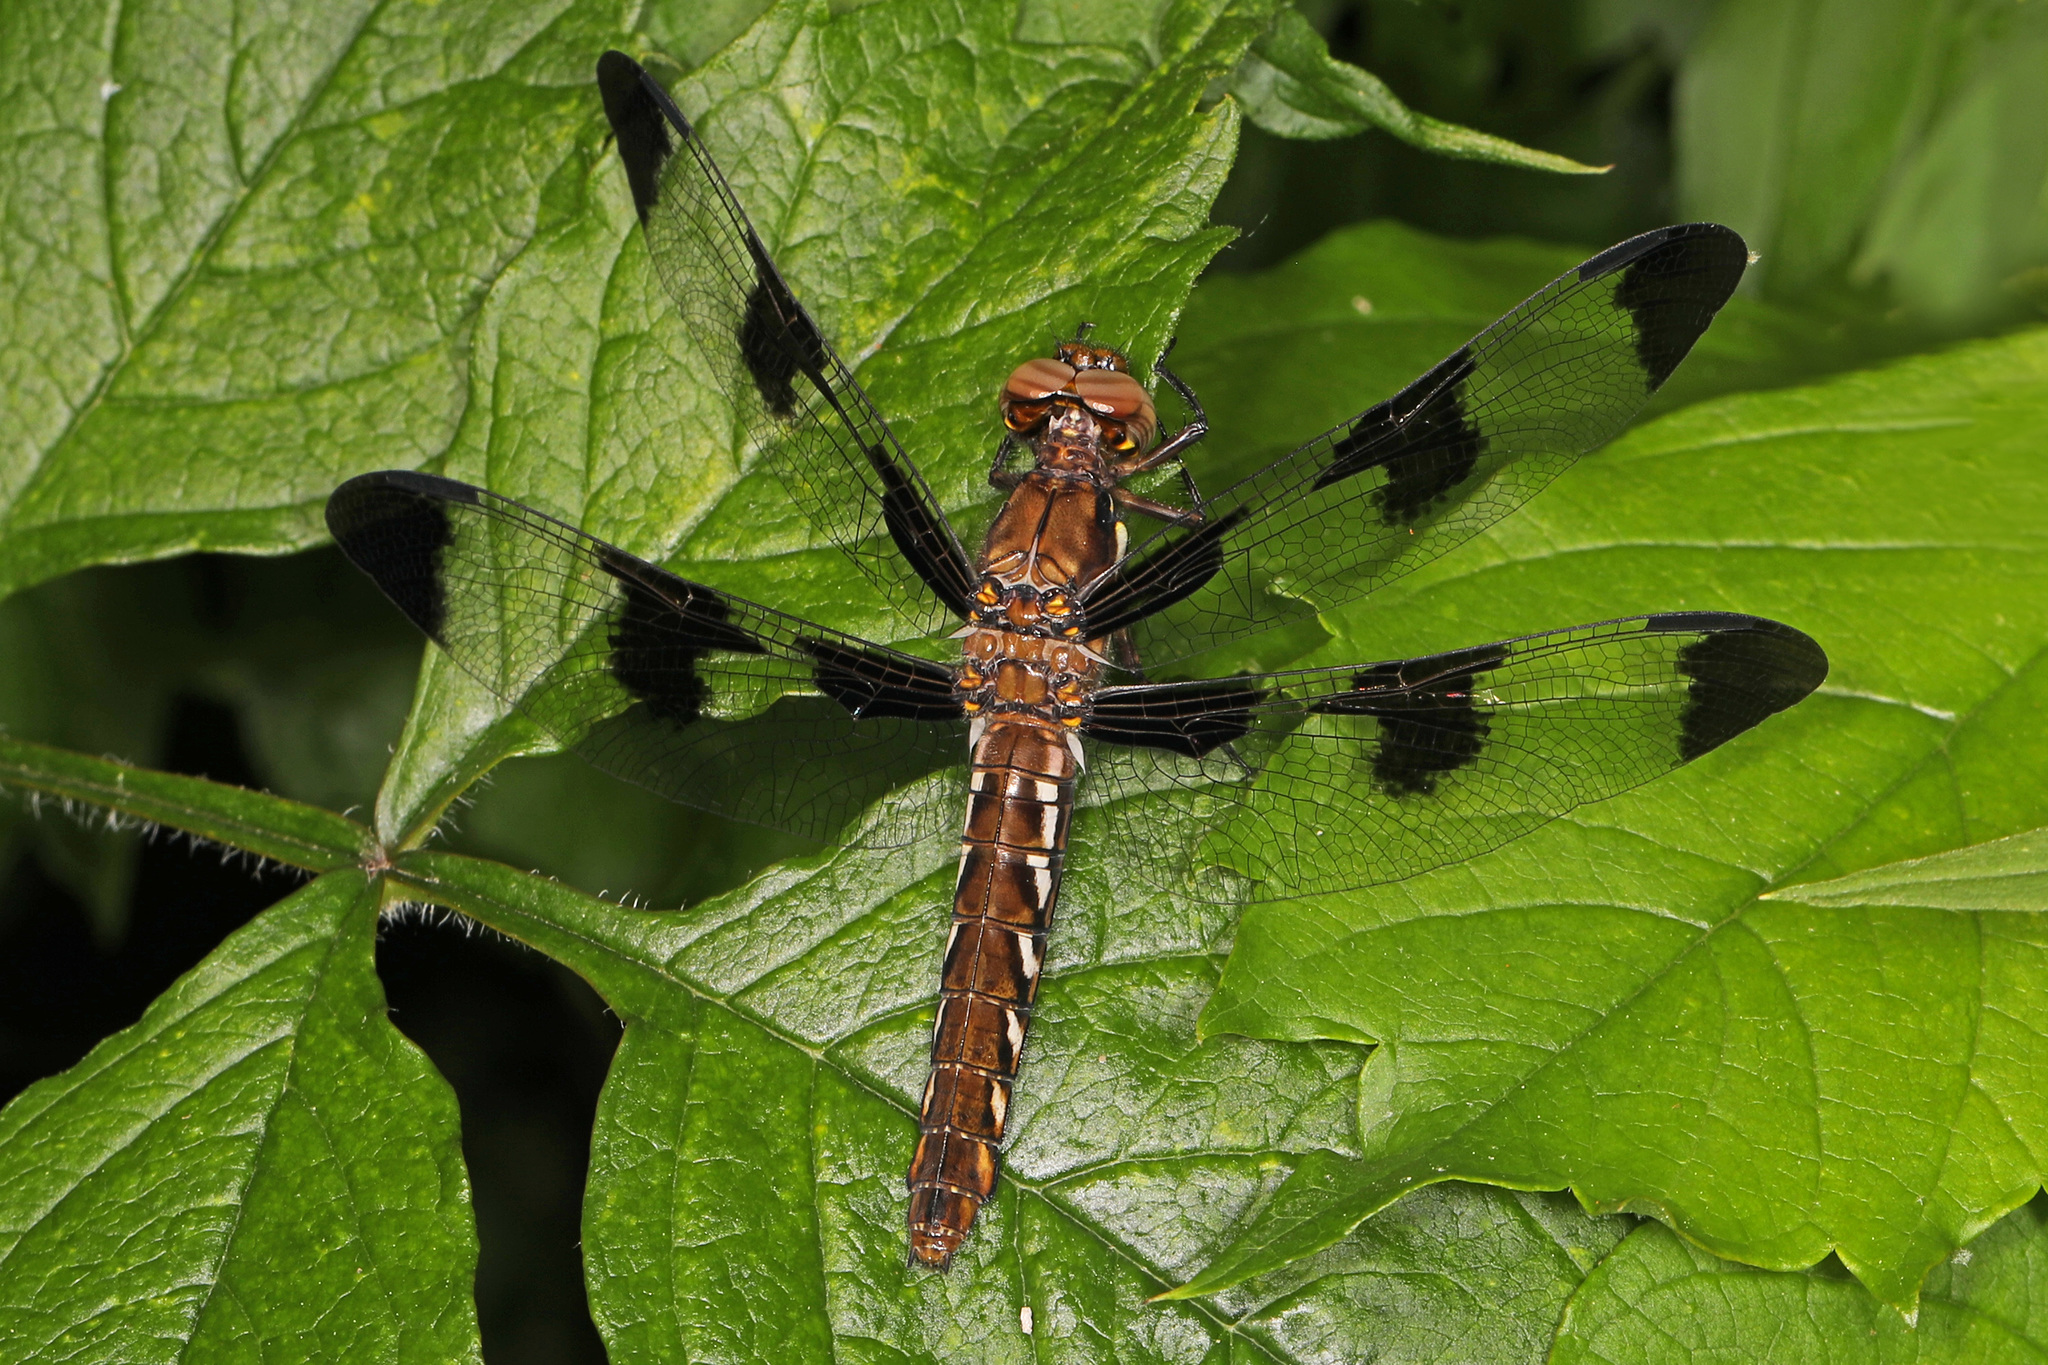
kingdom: Animalia
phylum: Arthropoda
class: Insecta
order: Odonata
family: Libellulidae
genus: Plathemis
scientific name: Plathemis lydia
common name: Common whitetail
